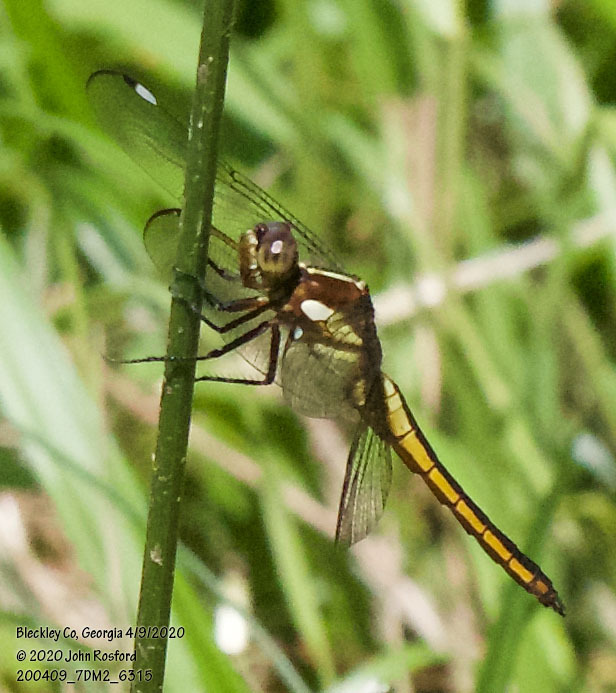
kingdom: Animalia
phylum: Arthropoda
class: Insecta
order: Odonata
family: Libellulidae
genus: Libellula
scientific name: Libellula cyanea
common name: Spangled skimmer
